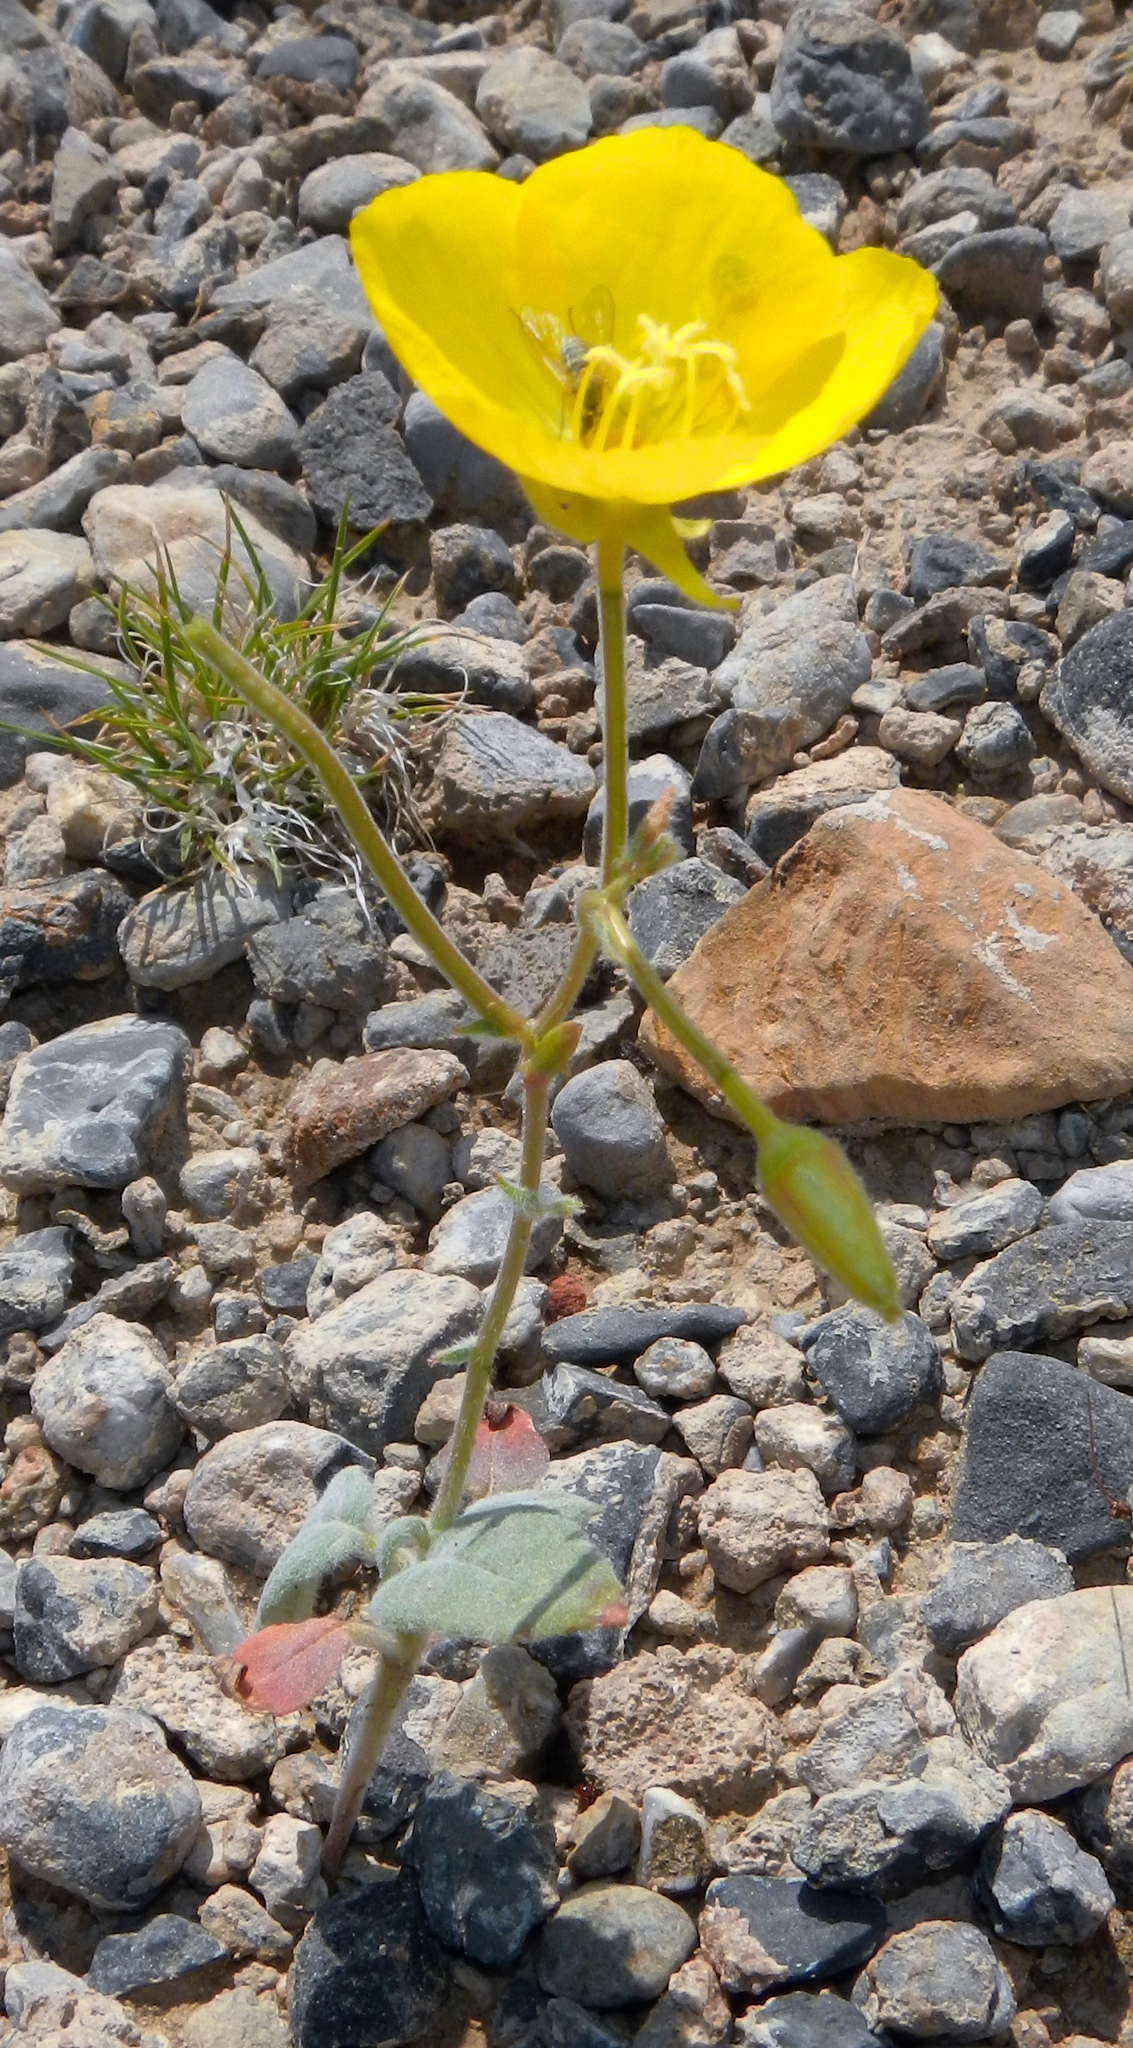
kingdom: Plantae
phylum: Tracheophyta
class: Magnoliopsida
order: Myrtales
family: Onagraceae
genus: Chylismia
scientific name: Chylismia brevipes
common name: Yellow cups
